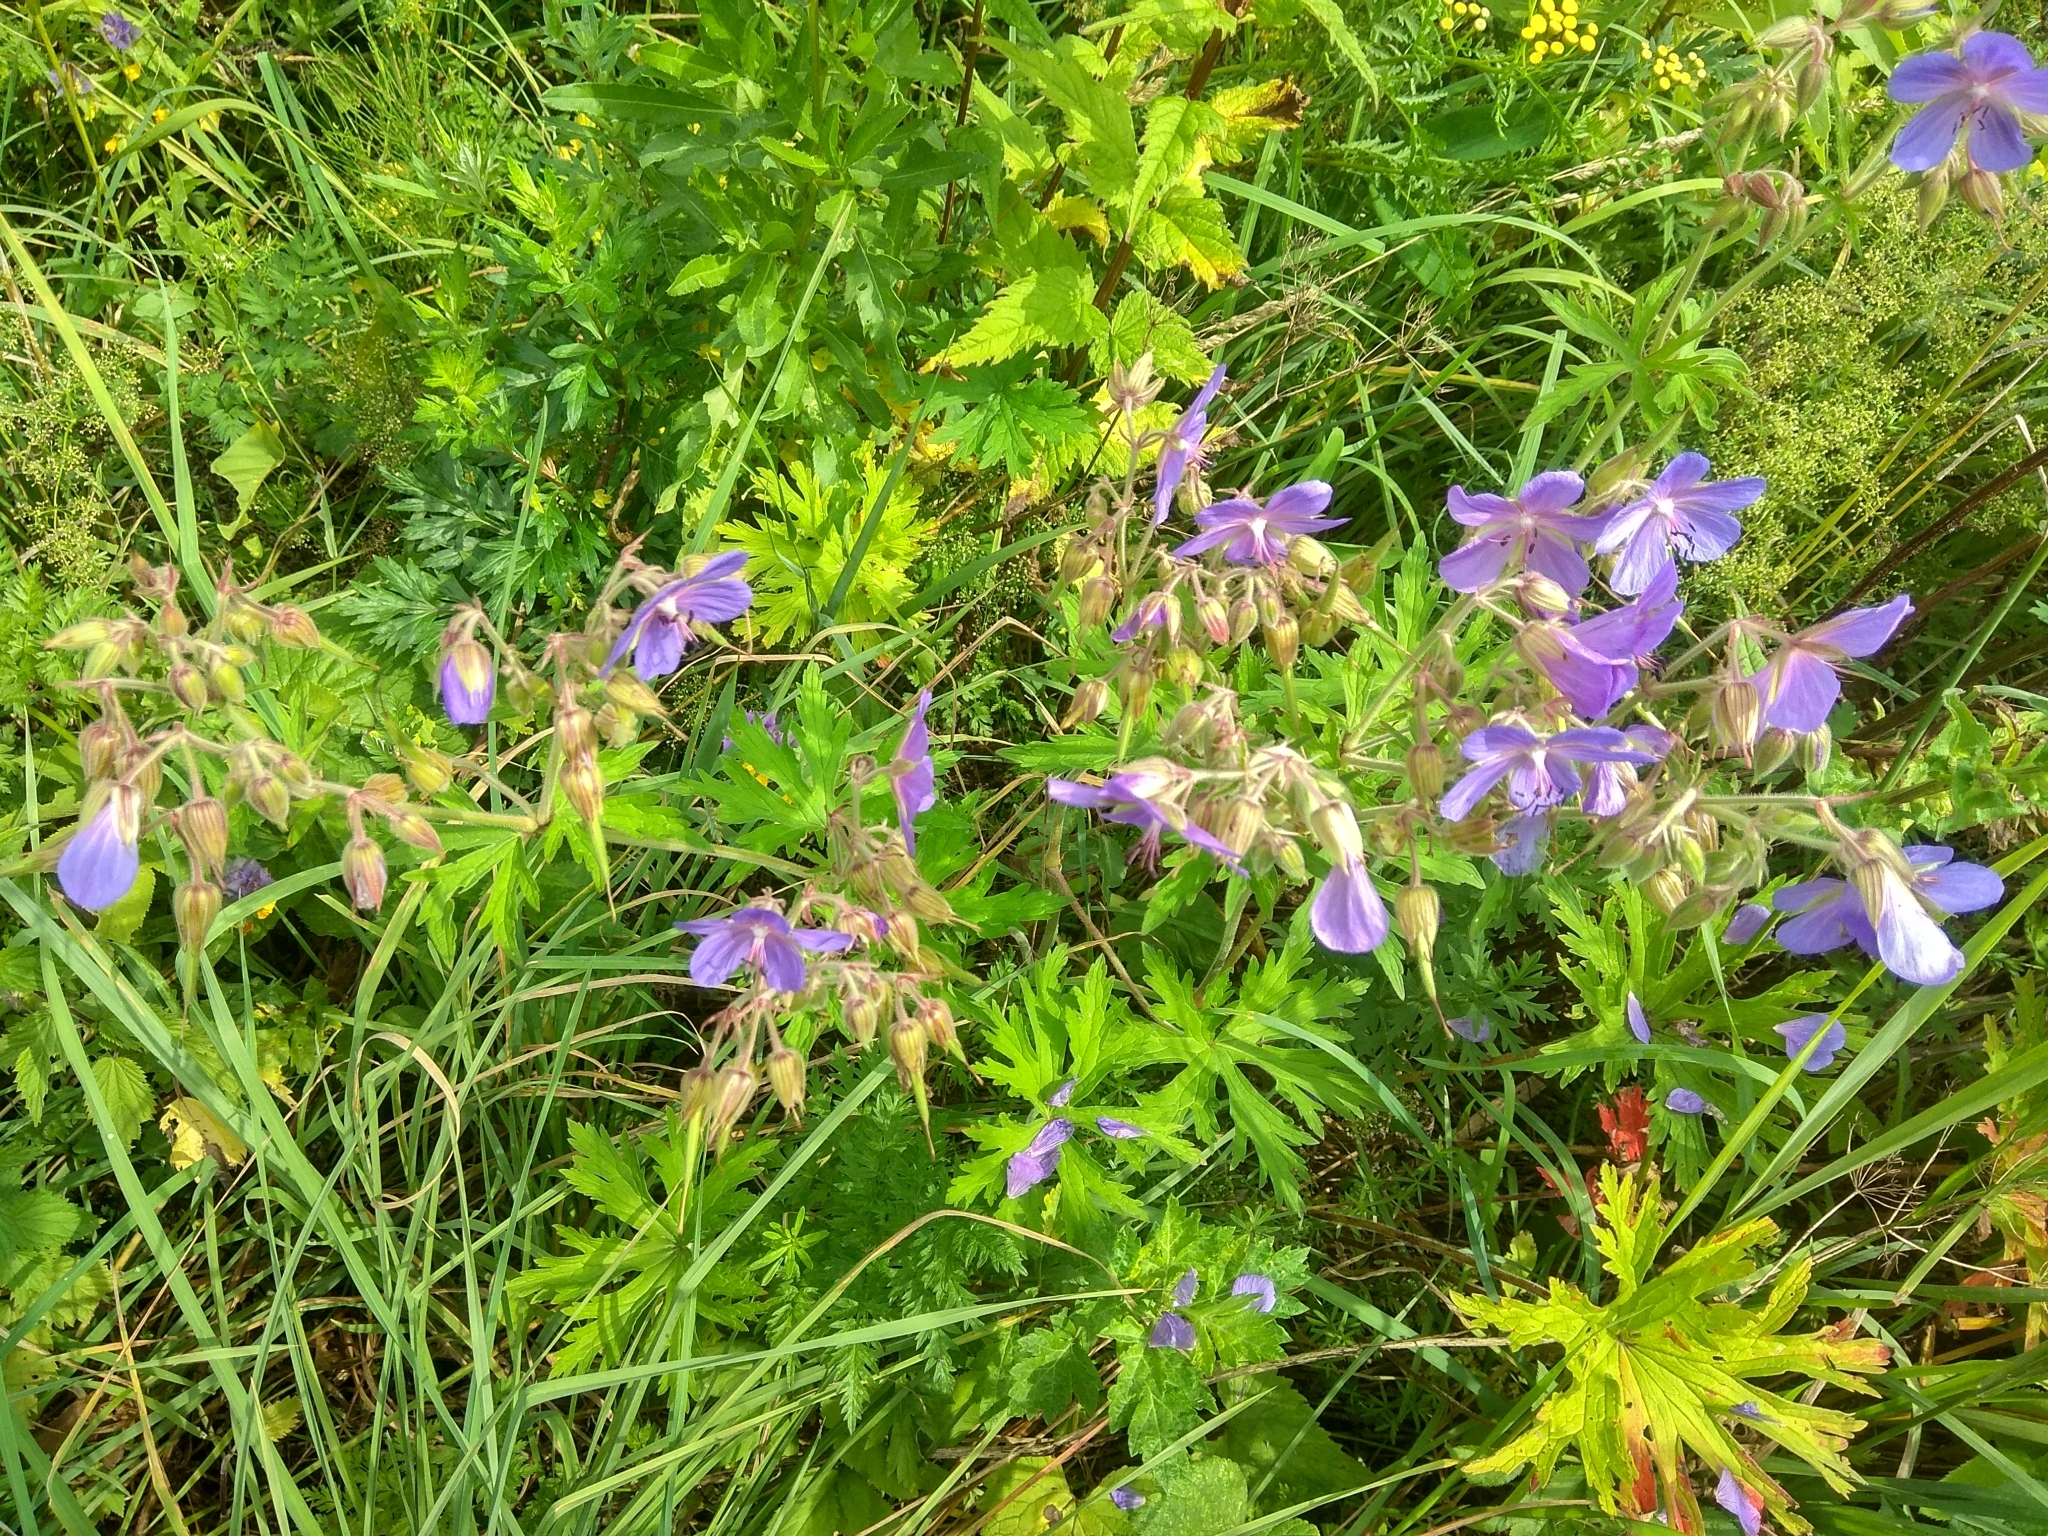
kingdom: Plantae
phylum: Tracheophyta
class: Magnoliopsida
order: Geraniales
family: Geraniaceae
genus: Geranium
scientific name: Geranium pratense
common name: Meadow crane's-bill
